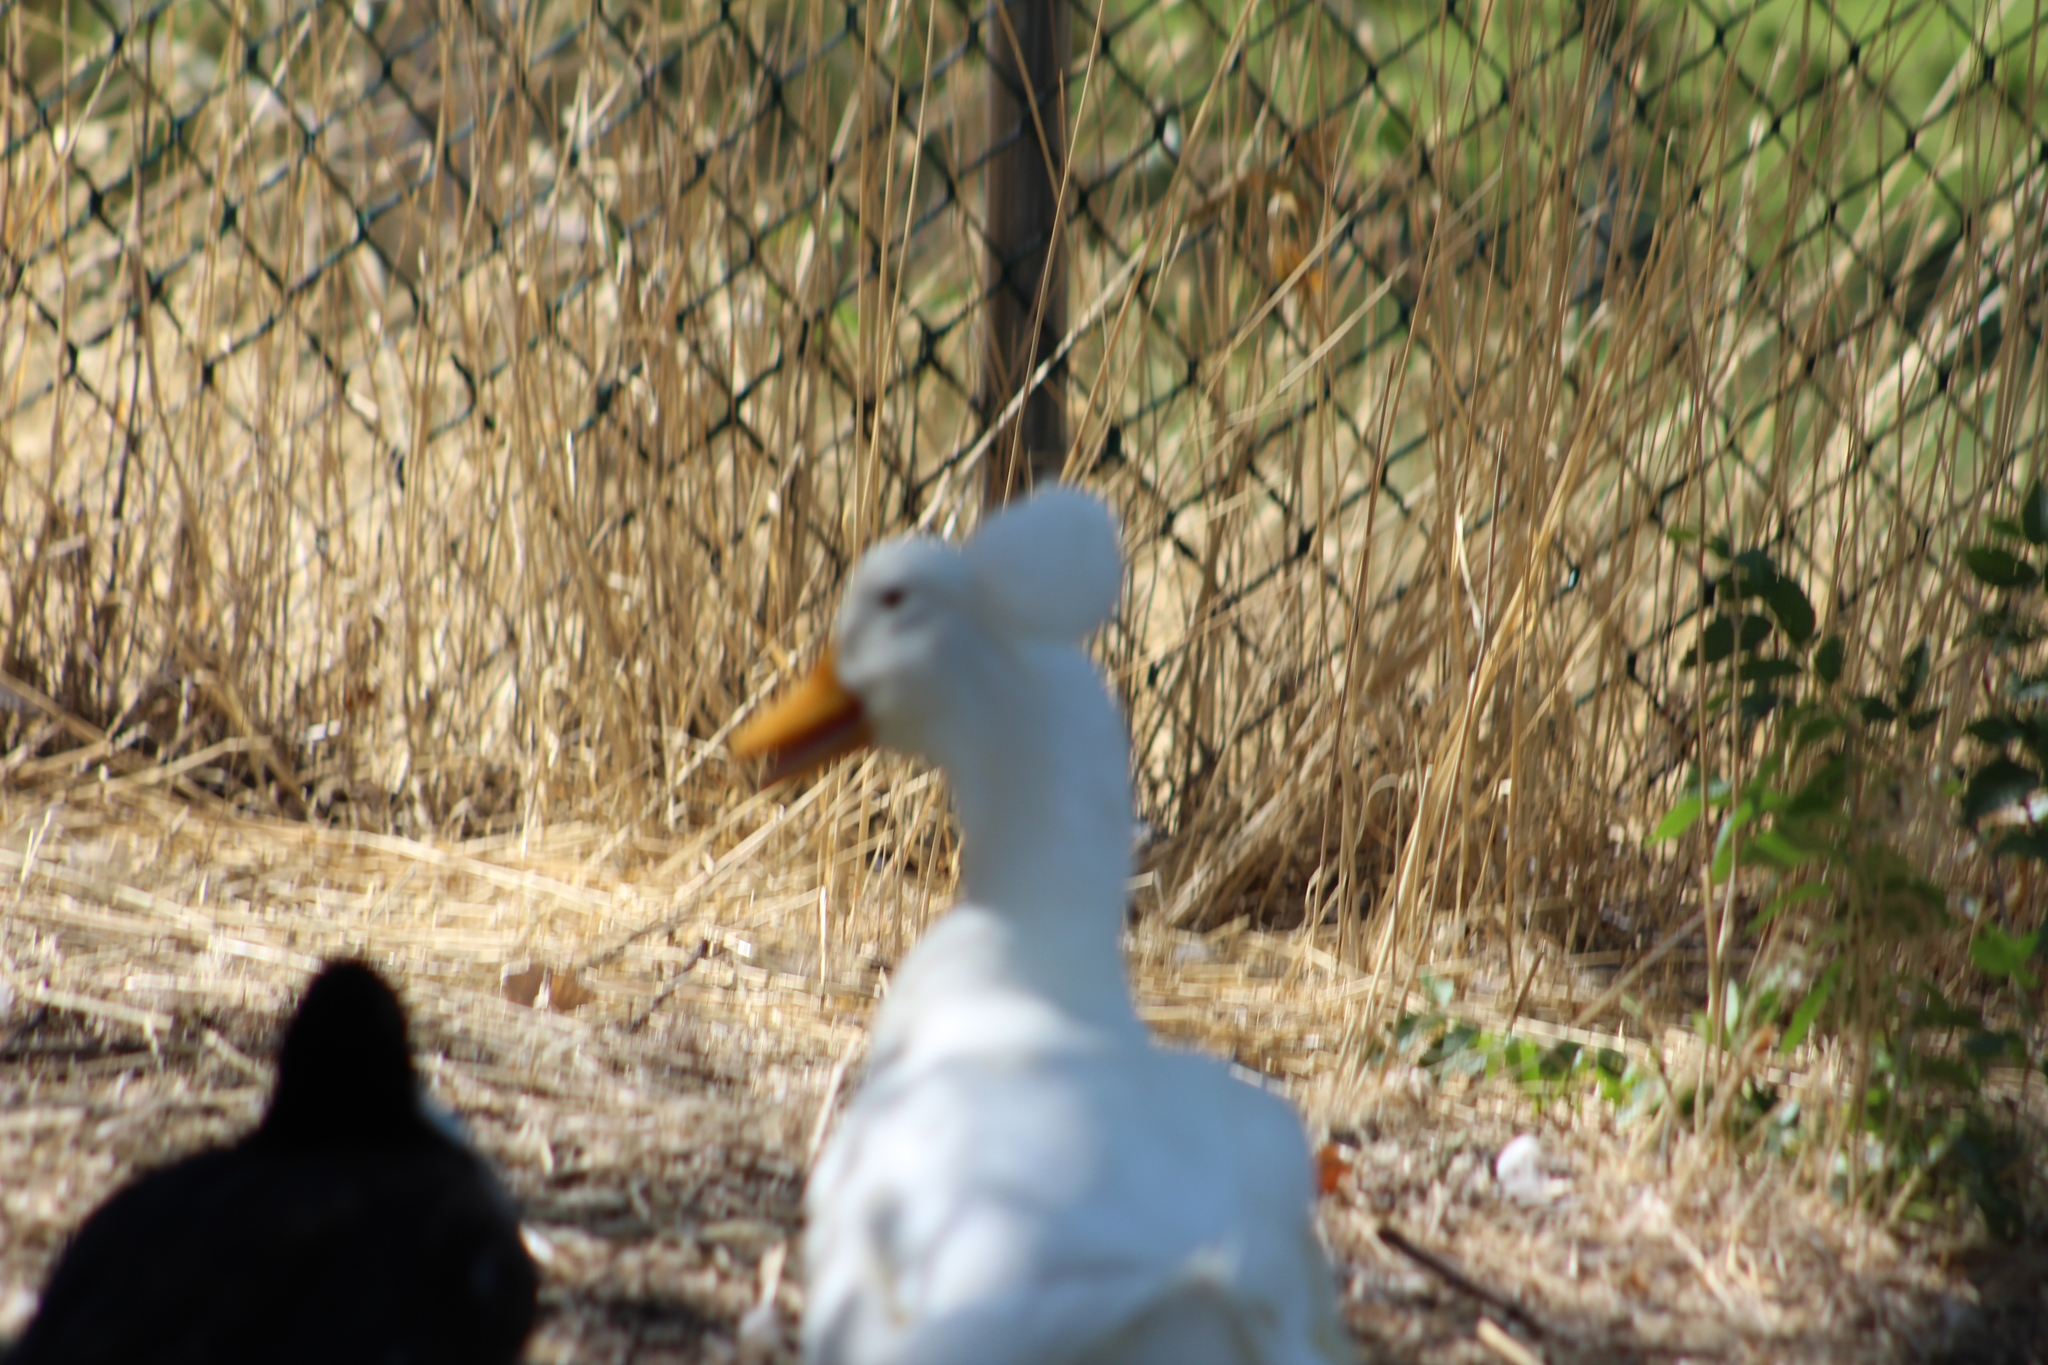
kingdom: Animalia
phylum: Chordata
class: Aves
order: Anseriformes
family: Anatidae
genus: Anas
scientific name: Anas platyrhynchos
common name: Mallard
